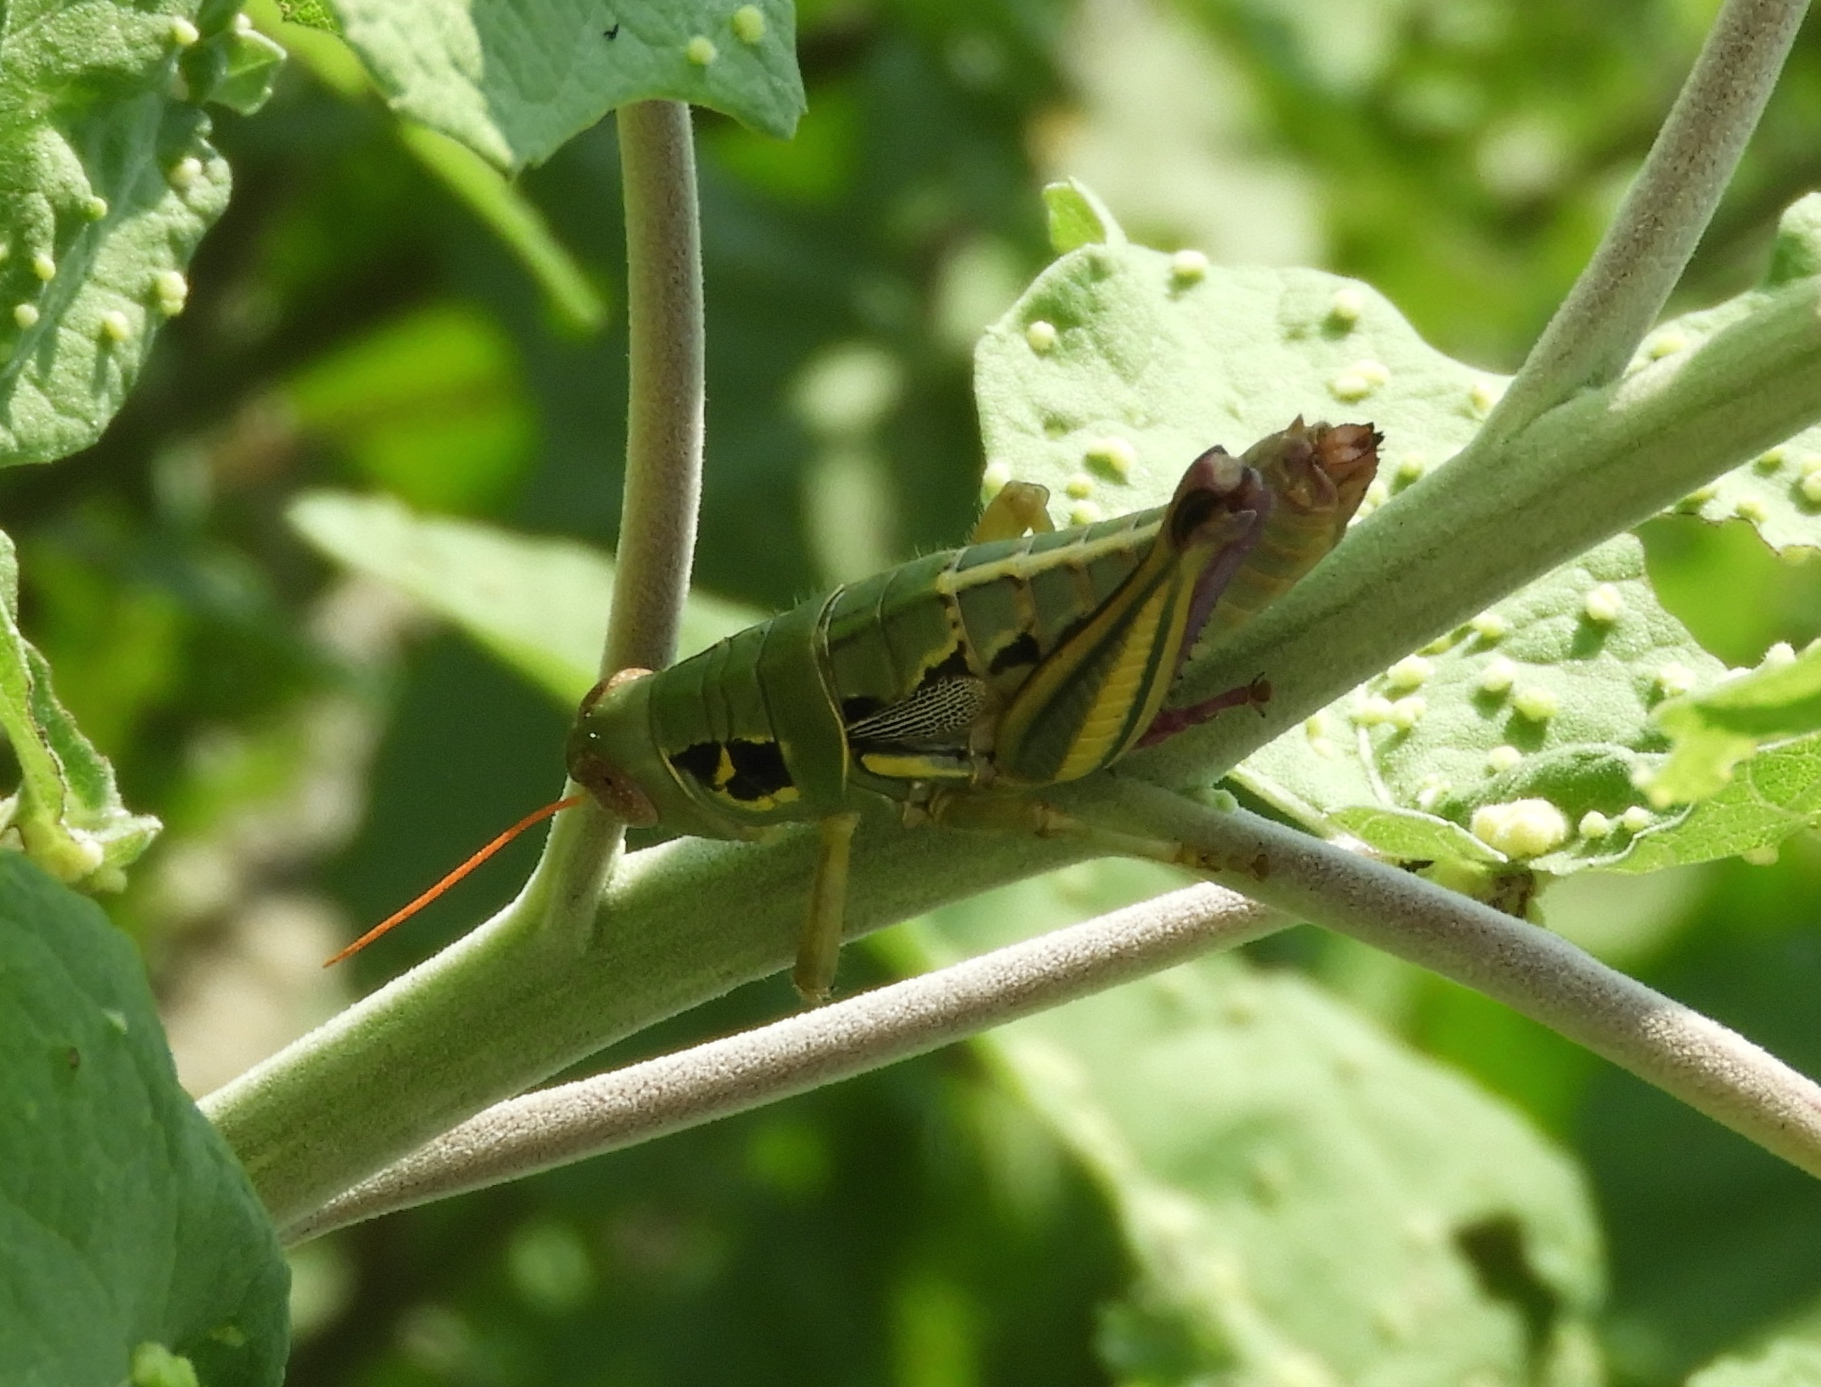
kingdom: Animalia
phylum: Arthropoda
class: Insecta
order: Orthoptera
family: Acrididae
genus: Barytettix
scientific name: Barytettix
